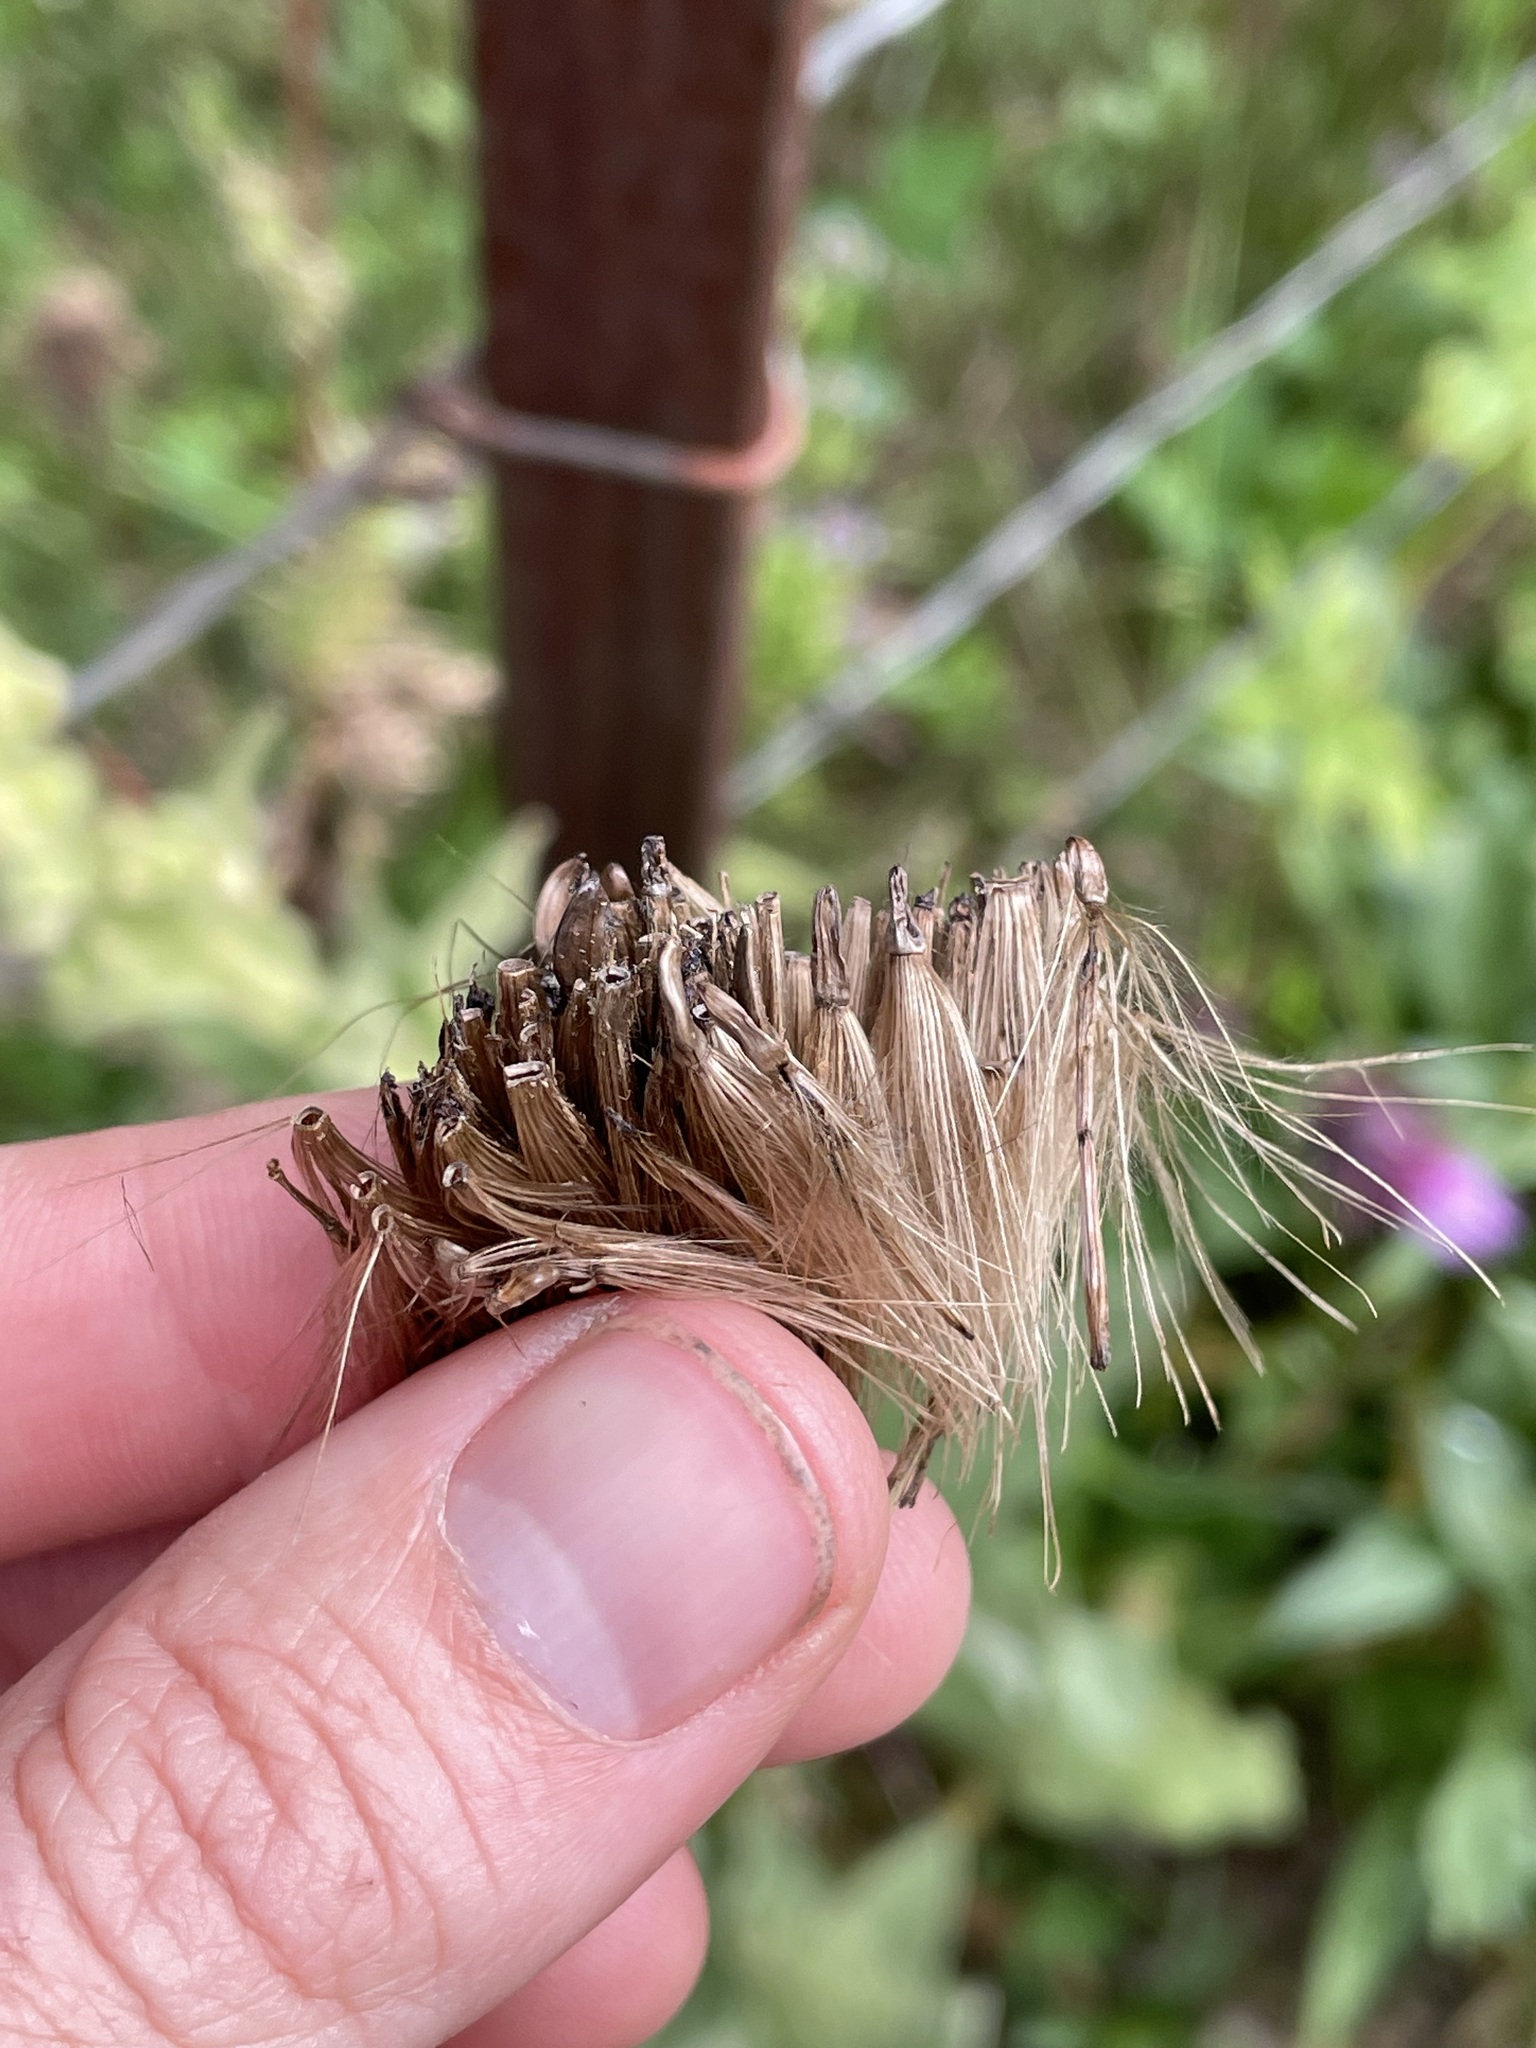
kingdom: Plantae
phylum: Tracheophyta
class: Magnoliopsida
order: Asterales
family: Asteraceae
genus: Cirsium
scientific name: Cirsium vinaceum
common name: Sacramento mountain thistle
